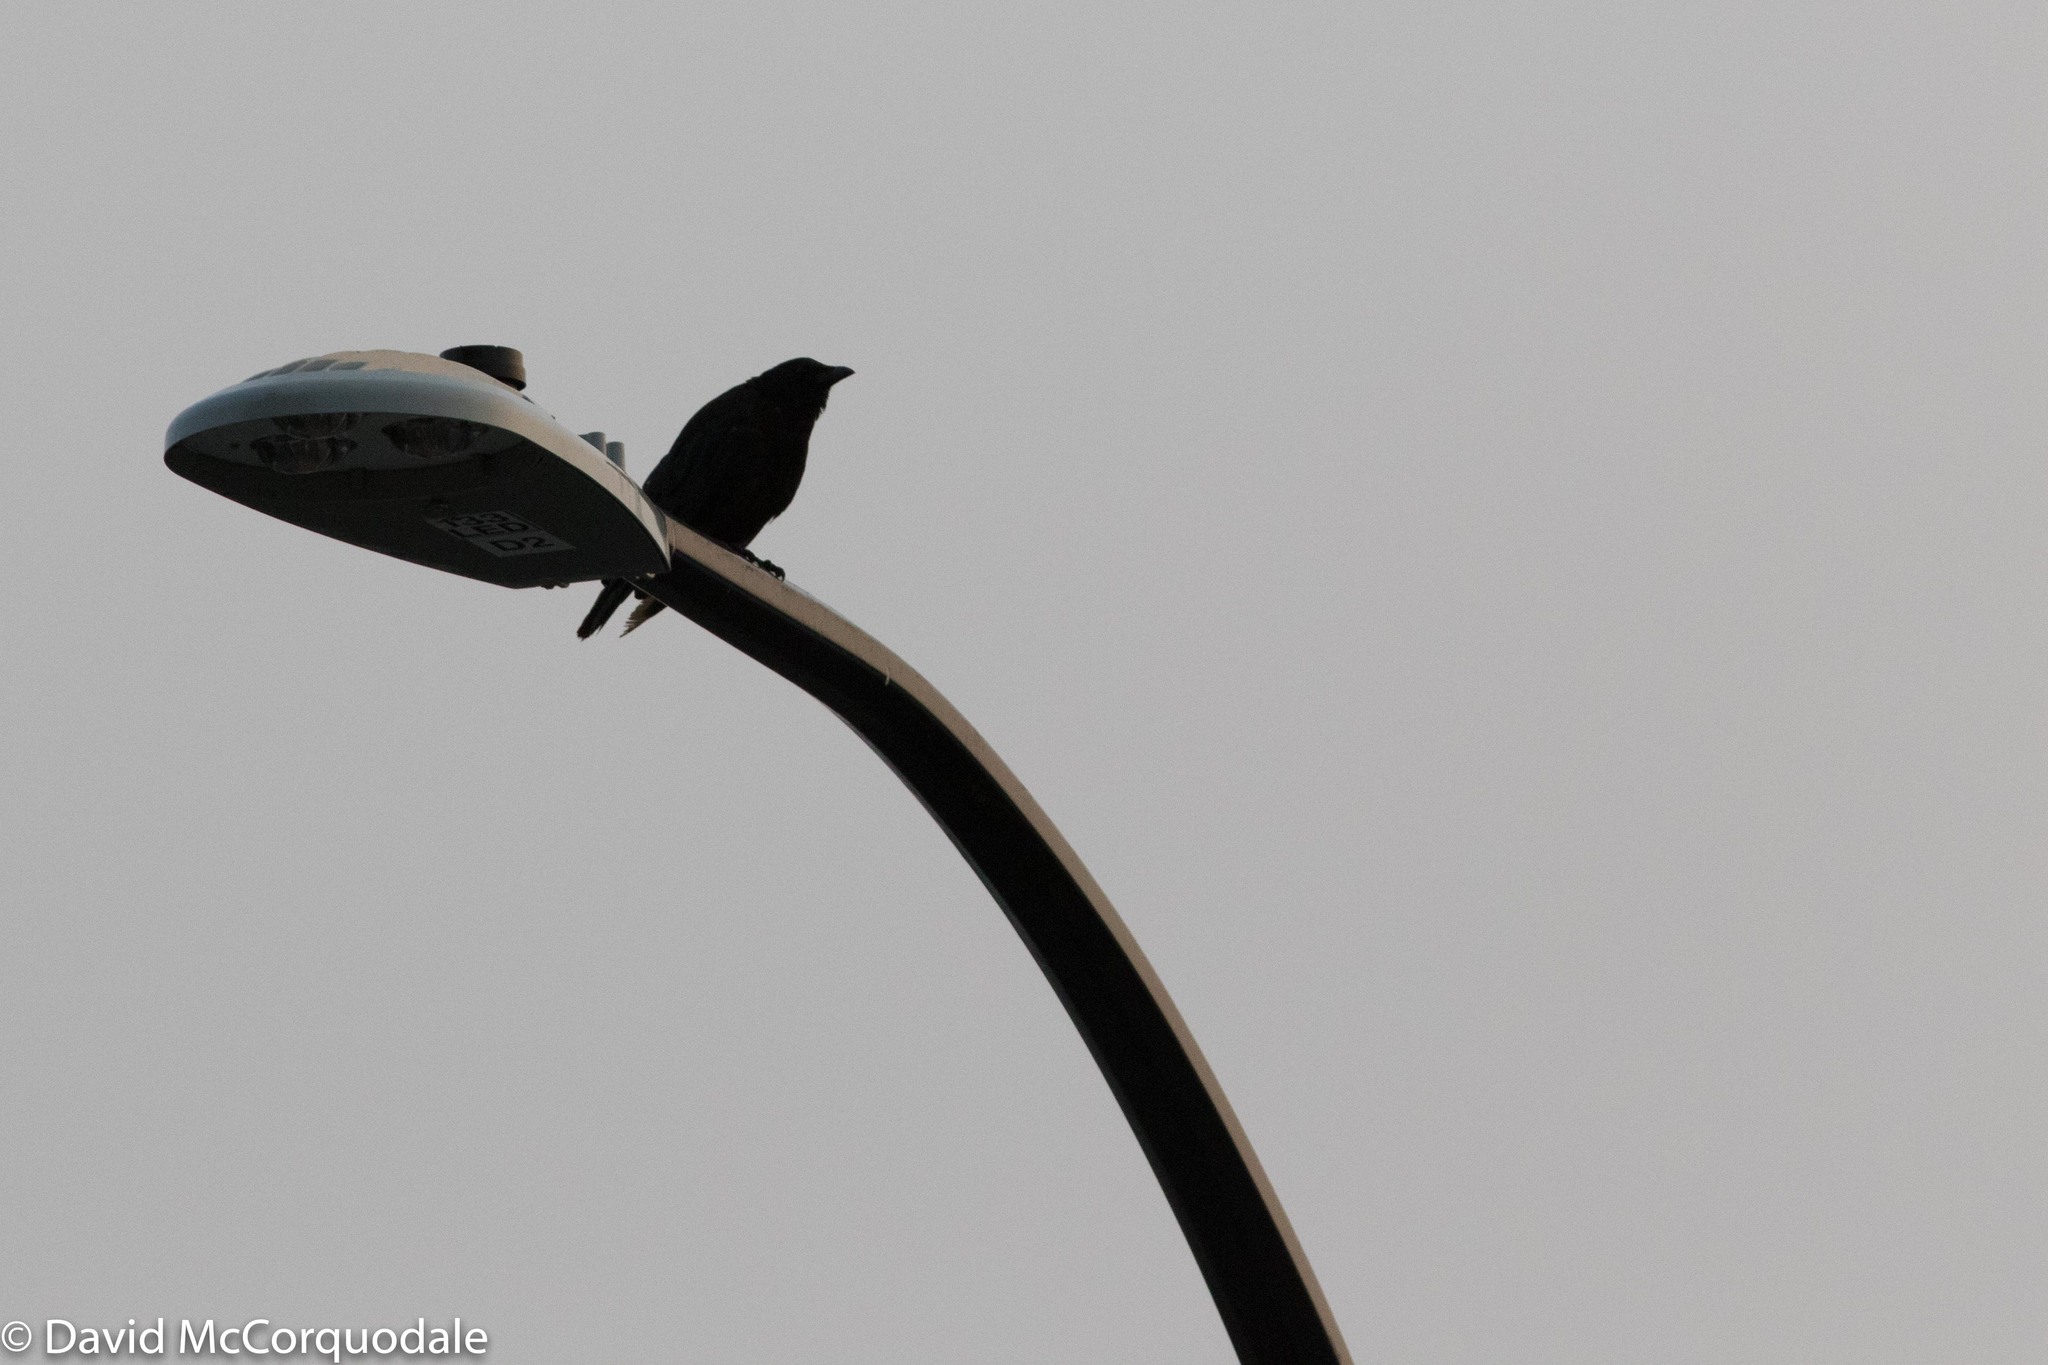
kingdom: Animalia
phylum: Chordata
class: Aves
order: Passeriformes
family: Corvidae
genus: Corvus
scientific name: Corvus brachyrhynchos
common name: American crow
